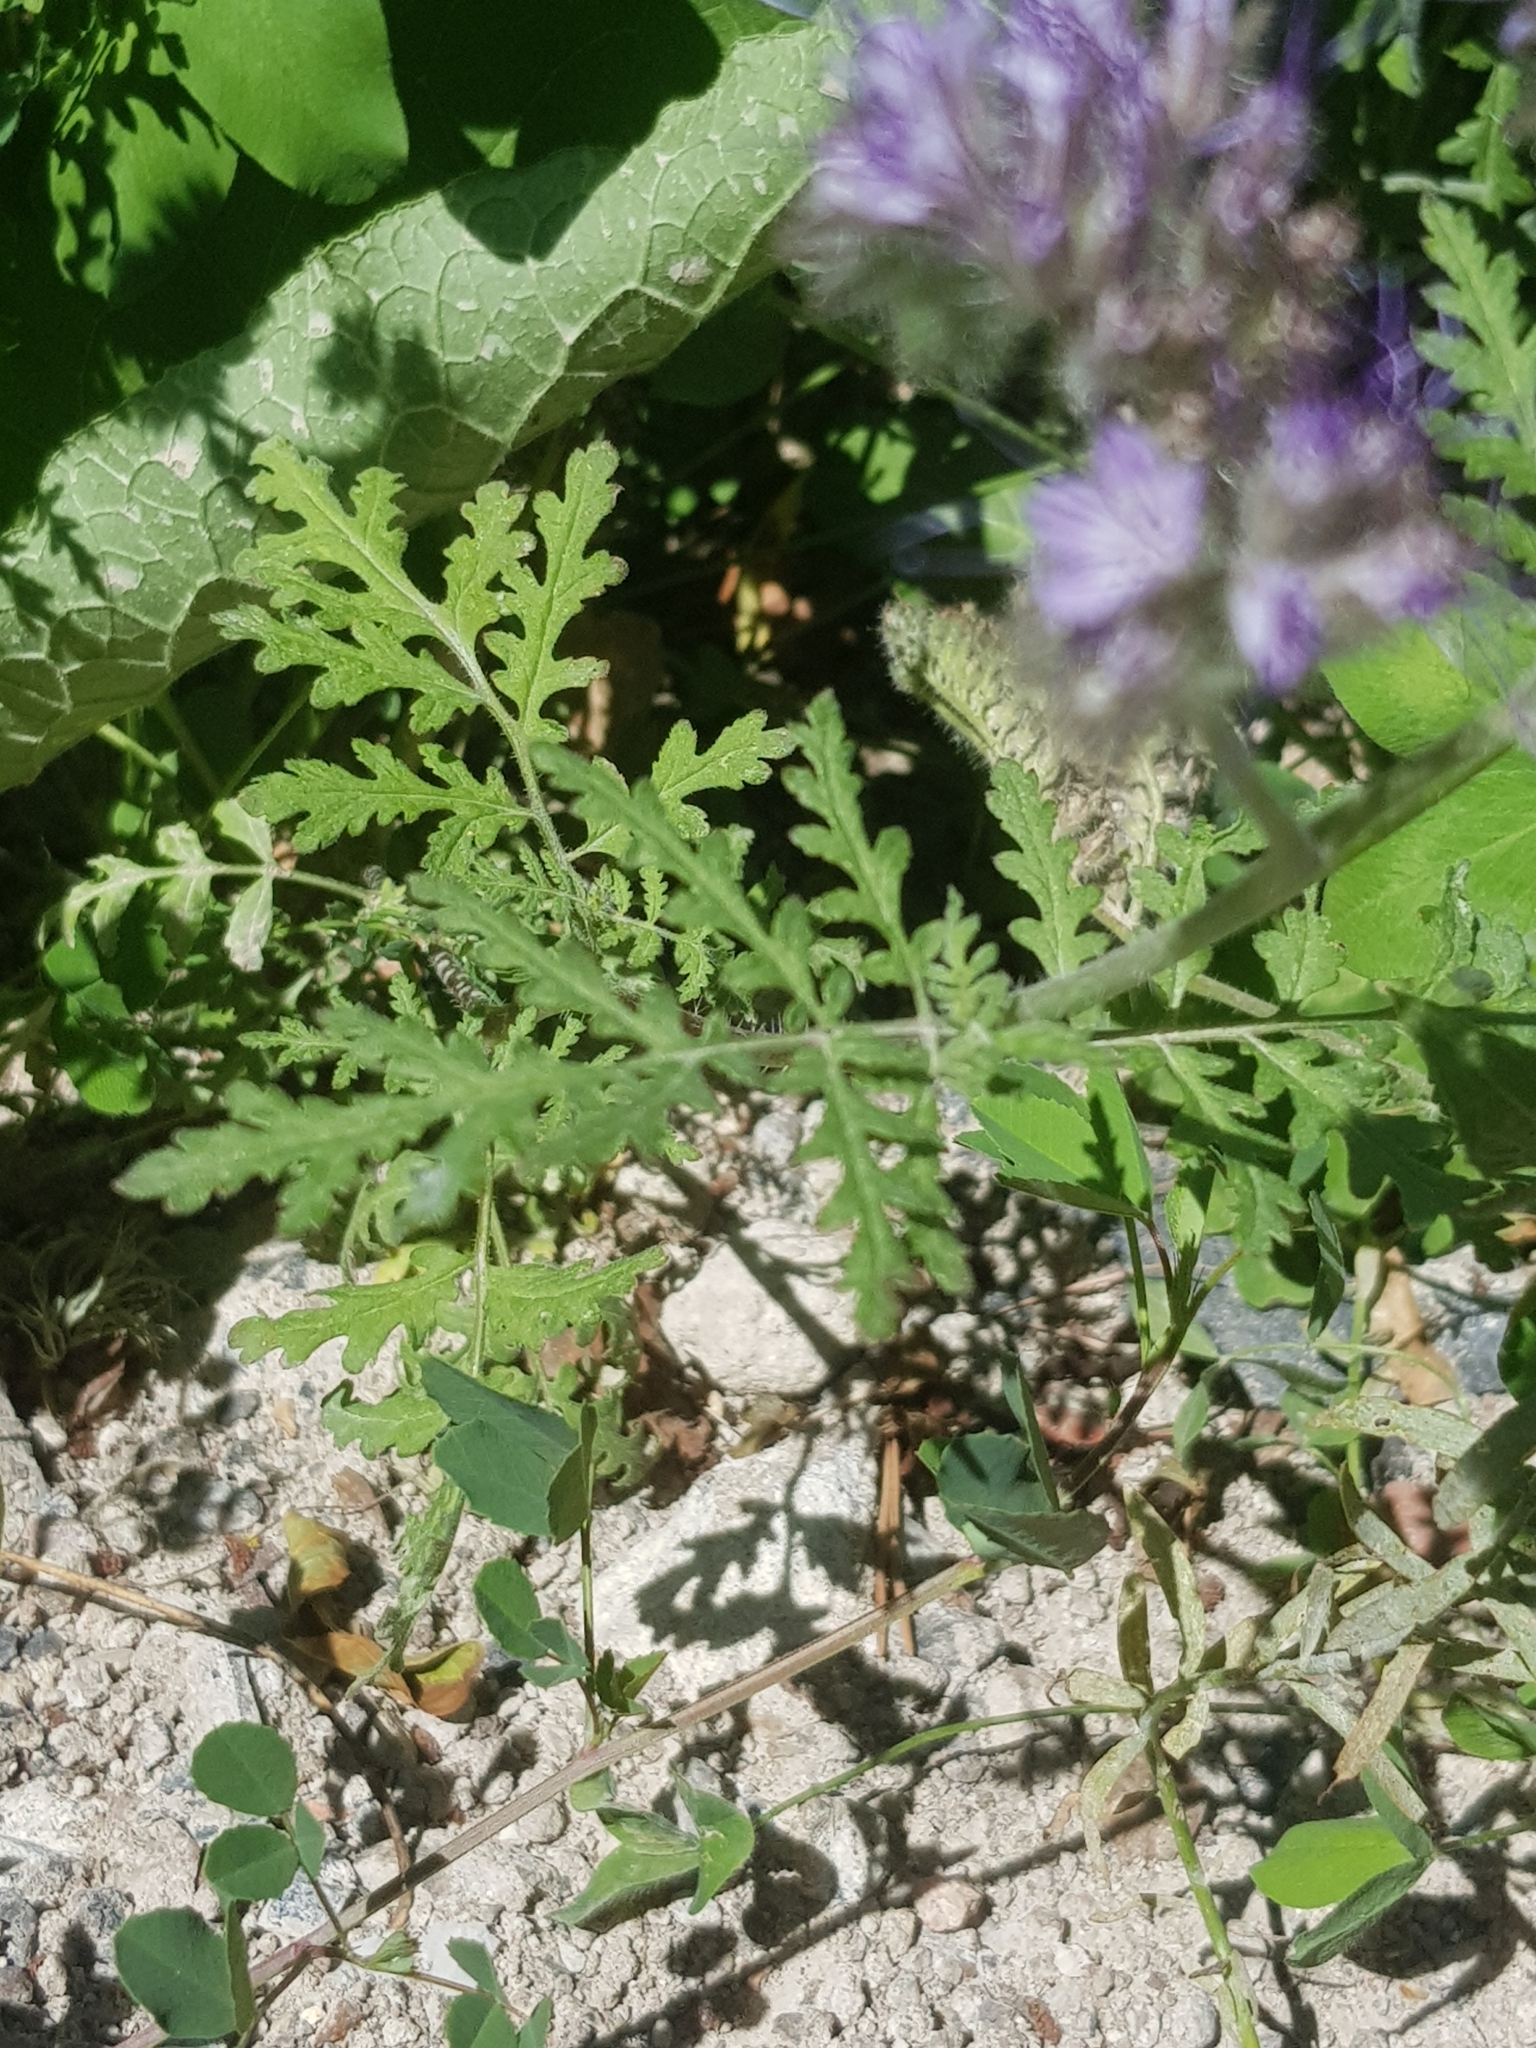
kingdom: Plantae
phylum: Tracheophyta
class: Magnoliopsida
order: Boraginales
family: Hydrophyllaceae
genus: Phacelia
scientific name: Phacelia tanacetifolia
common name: Phacelia
